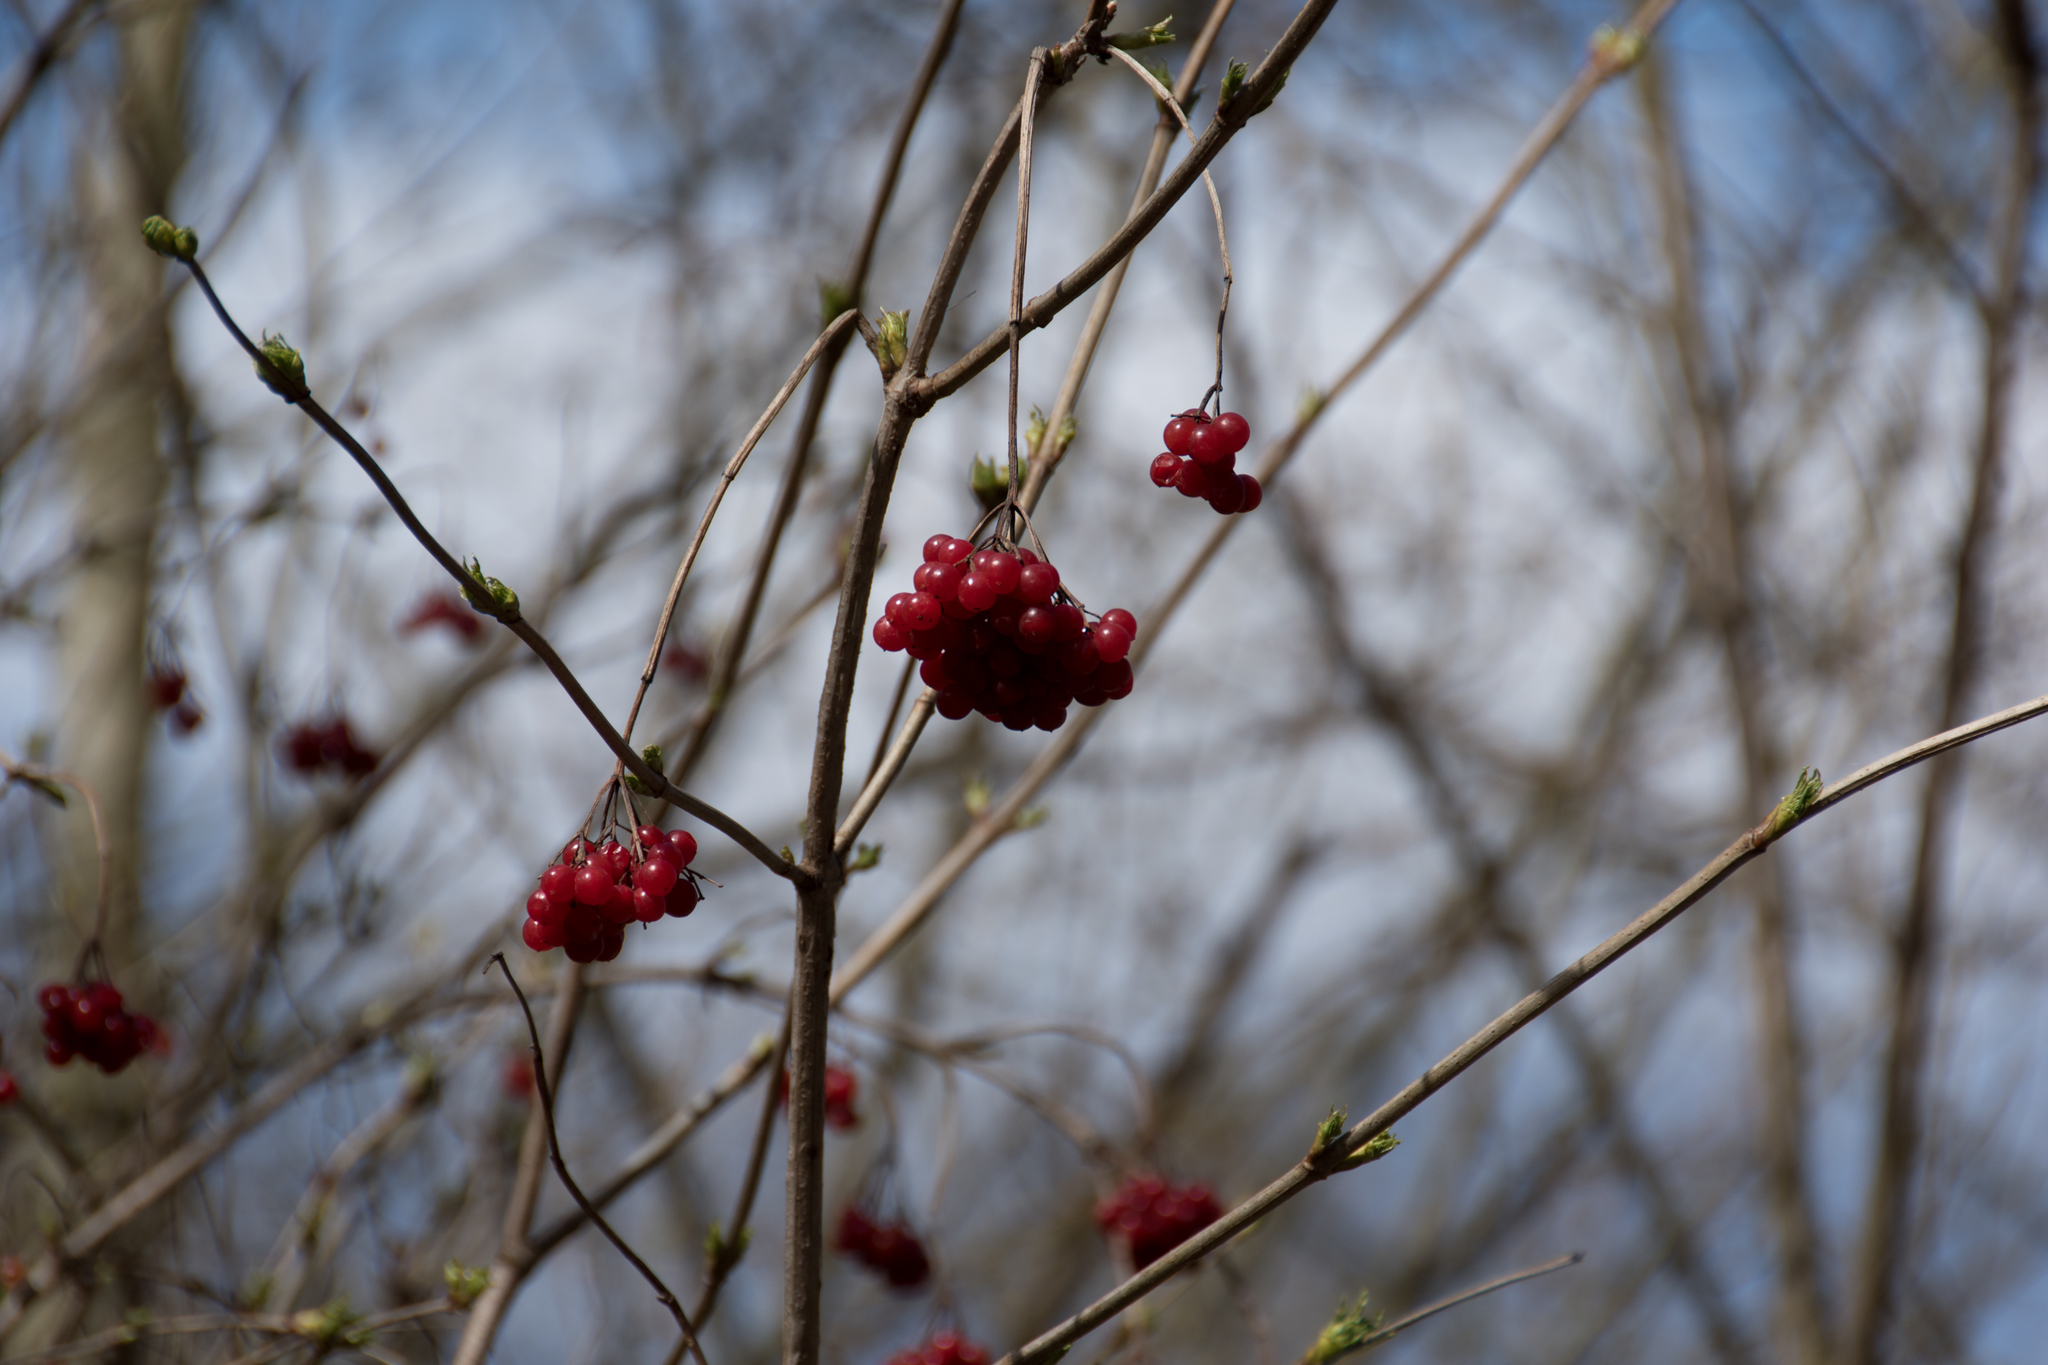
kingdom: Plantae
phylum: Tracheophyta
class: Magnoliopsida
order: Dipsacales
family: Viburnaceae
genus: Viburnum
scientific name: Viburnum opulus
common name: Guelder-rose
